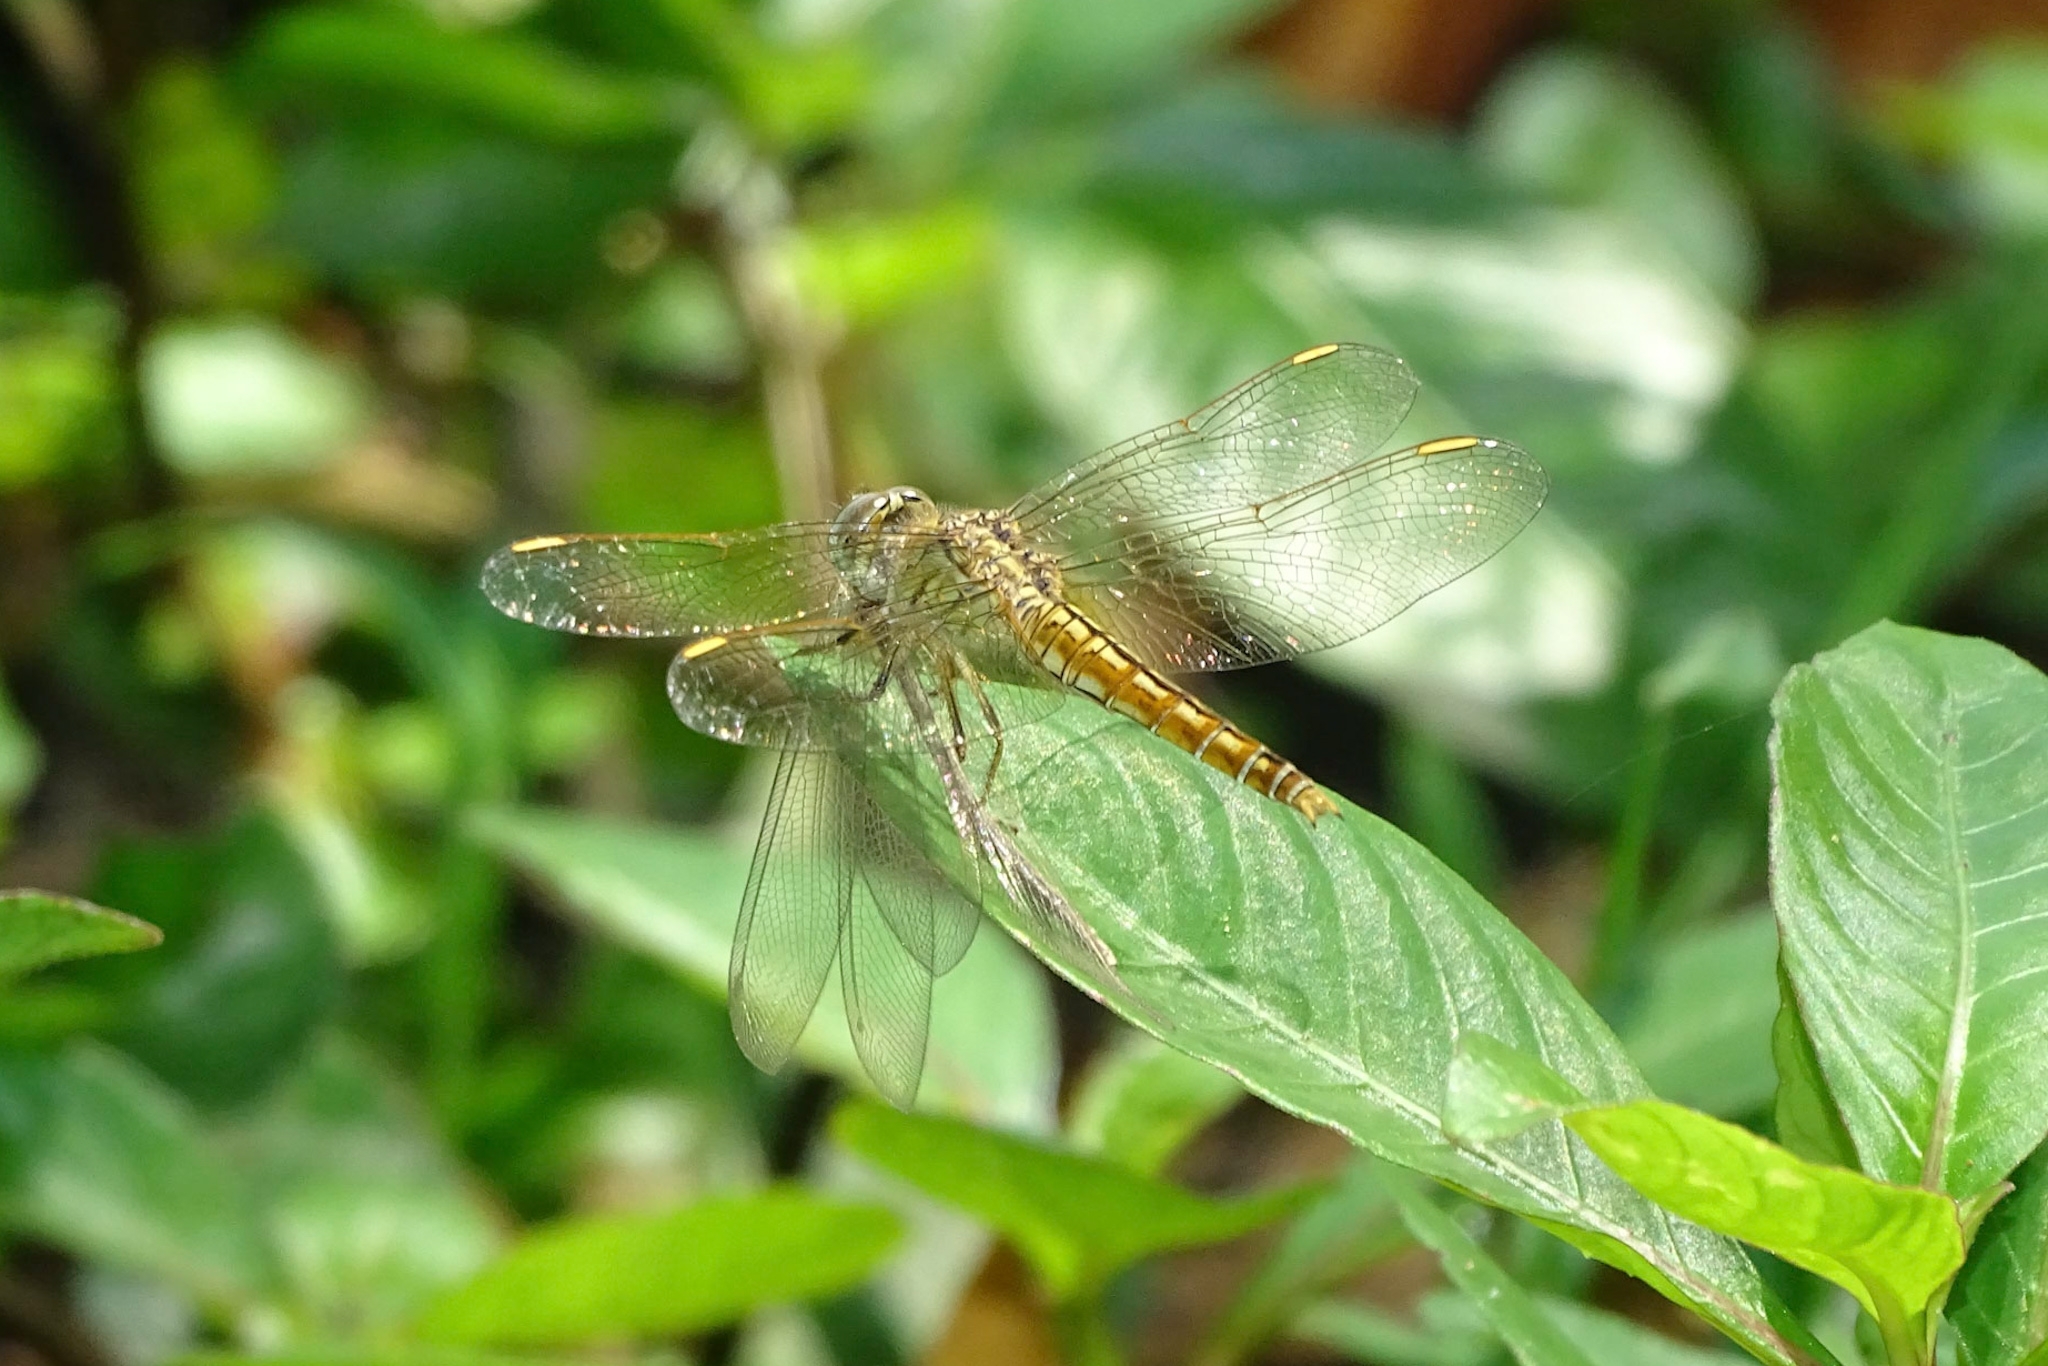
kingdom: Animalia
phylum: Arthropoda
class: Insecta
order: Odonata
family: Libellulidae
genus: Brachythemis
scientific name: Brachythemis contaminata
